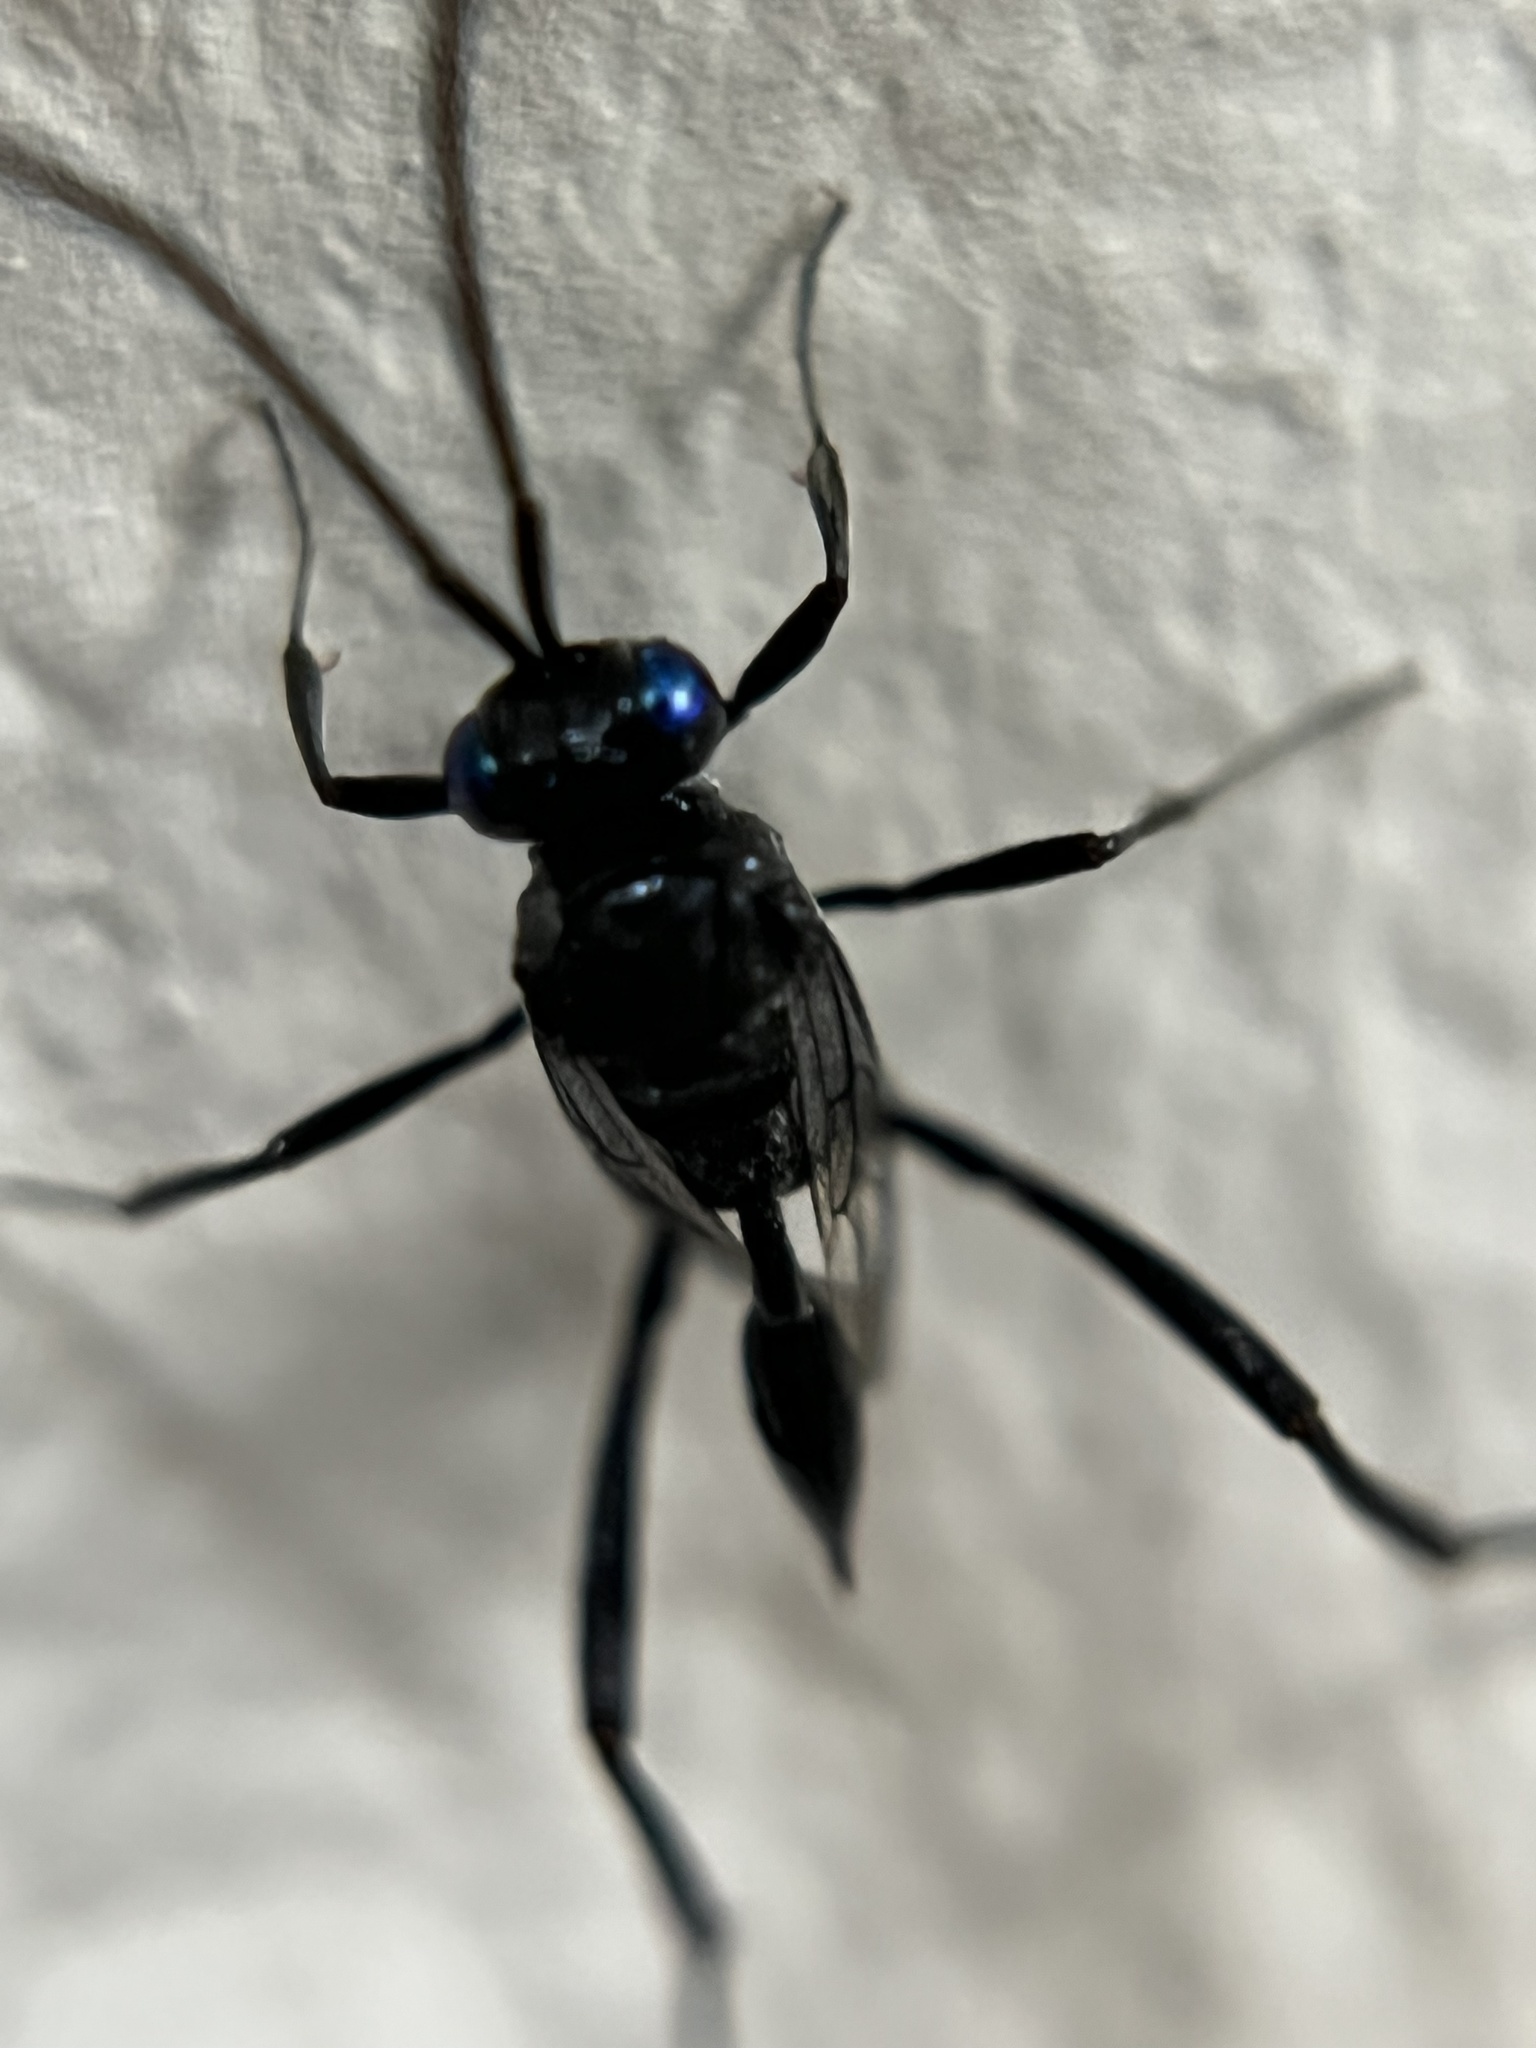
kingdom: Animalia
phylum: Arthropoda
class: Insecta
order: Hymenoptera
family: Evaniidae
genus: Evania
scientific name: Evania appendigaster
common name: Ensign wasp
